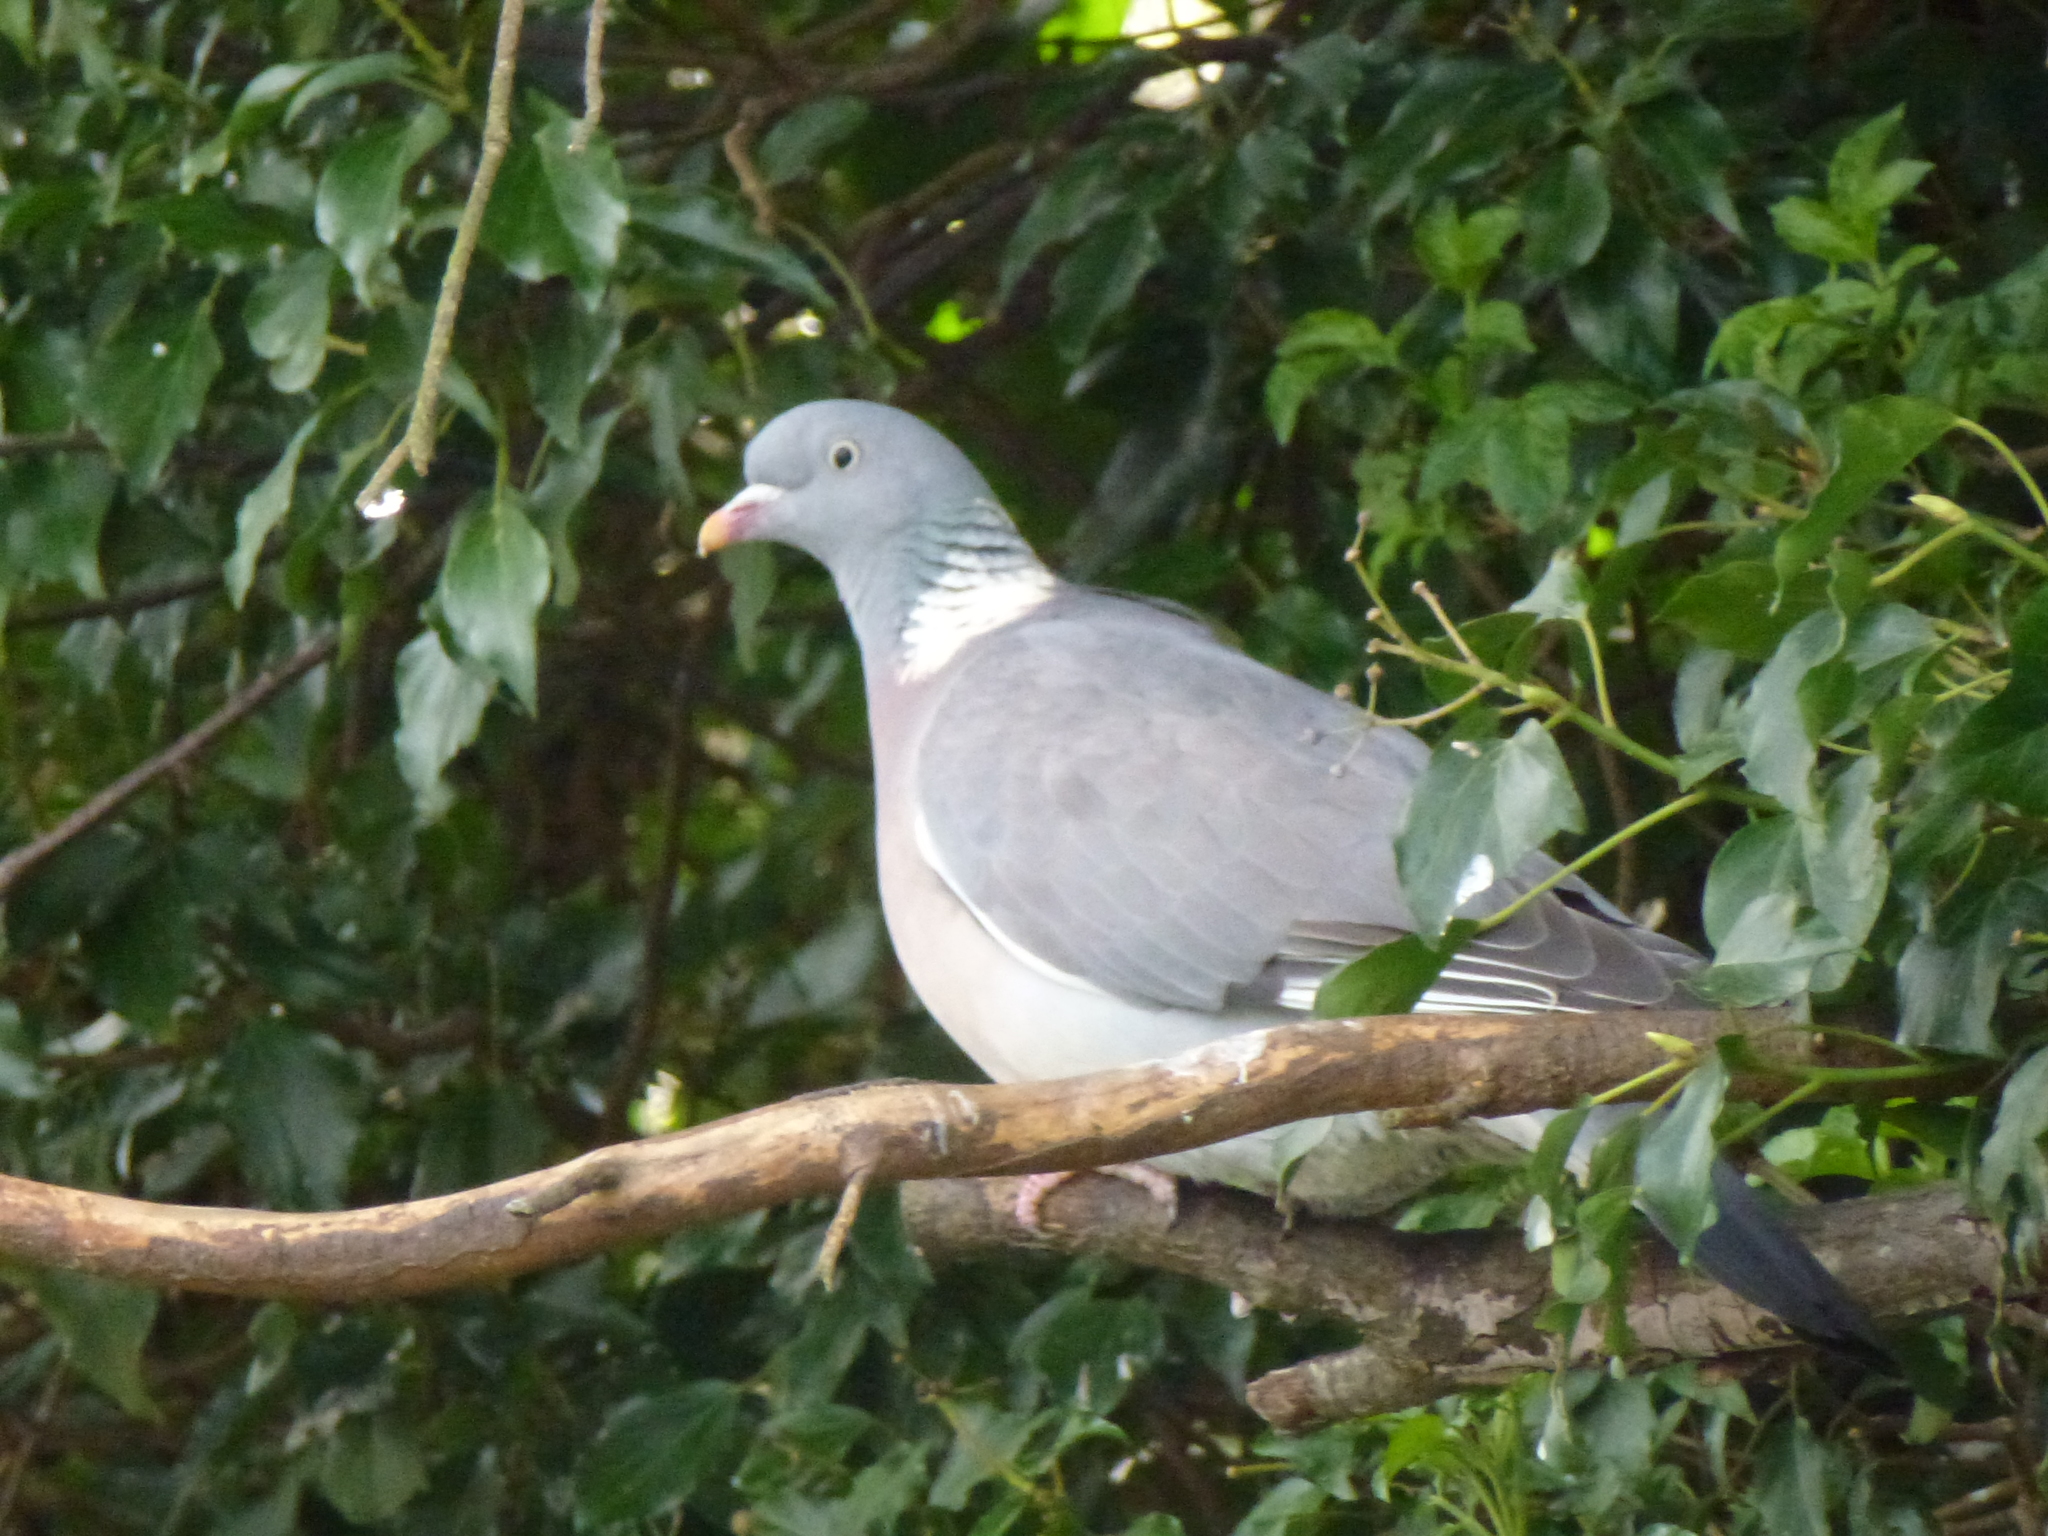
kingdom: Animalia
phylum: Chordata
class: Aves
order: Columbiformes
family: Columbidae
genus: Columba
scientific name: Columba palumbus
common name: Common wood pigeon
